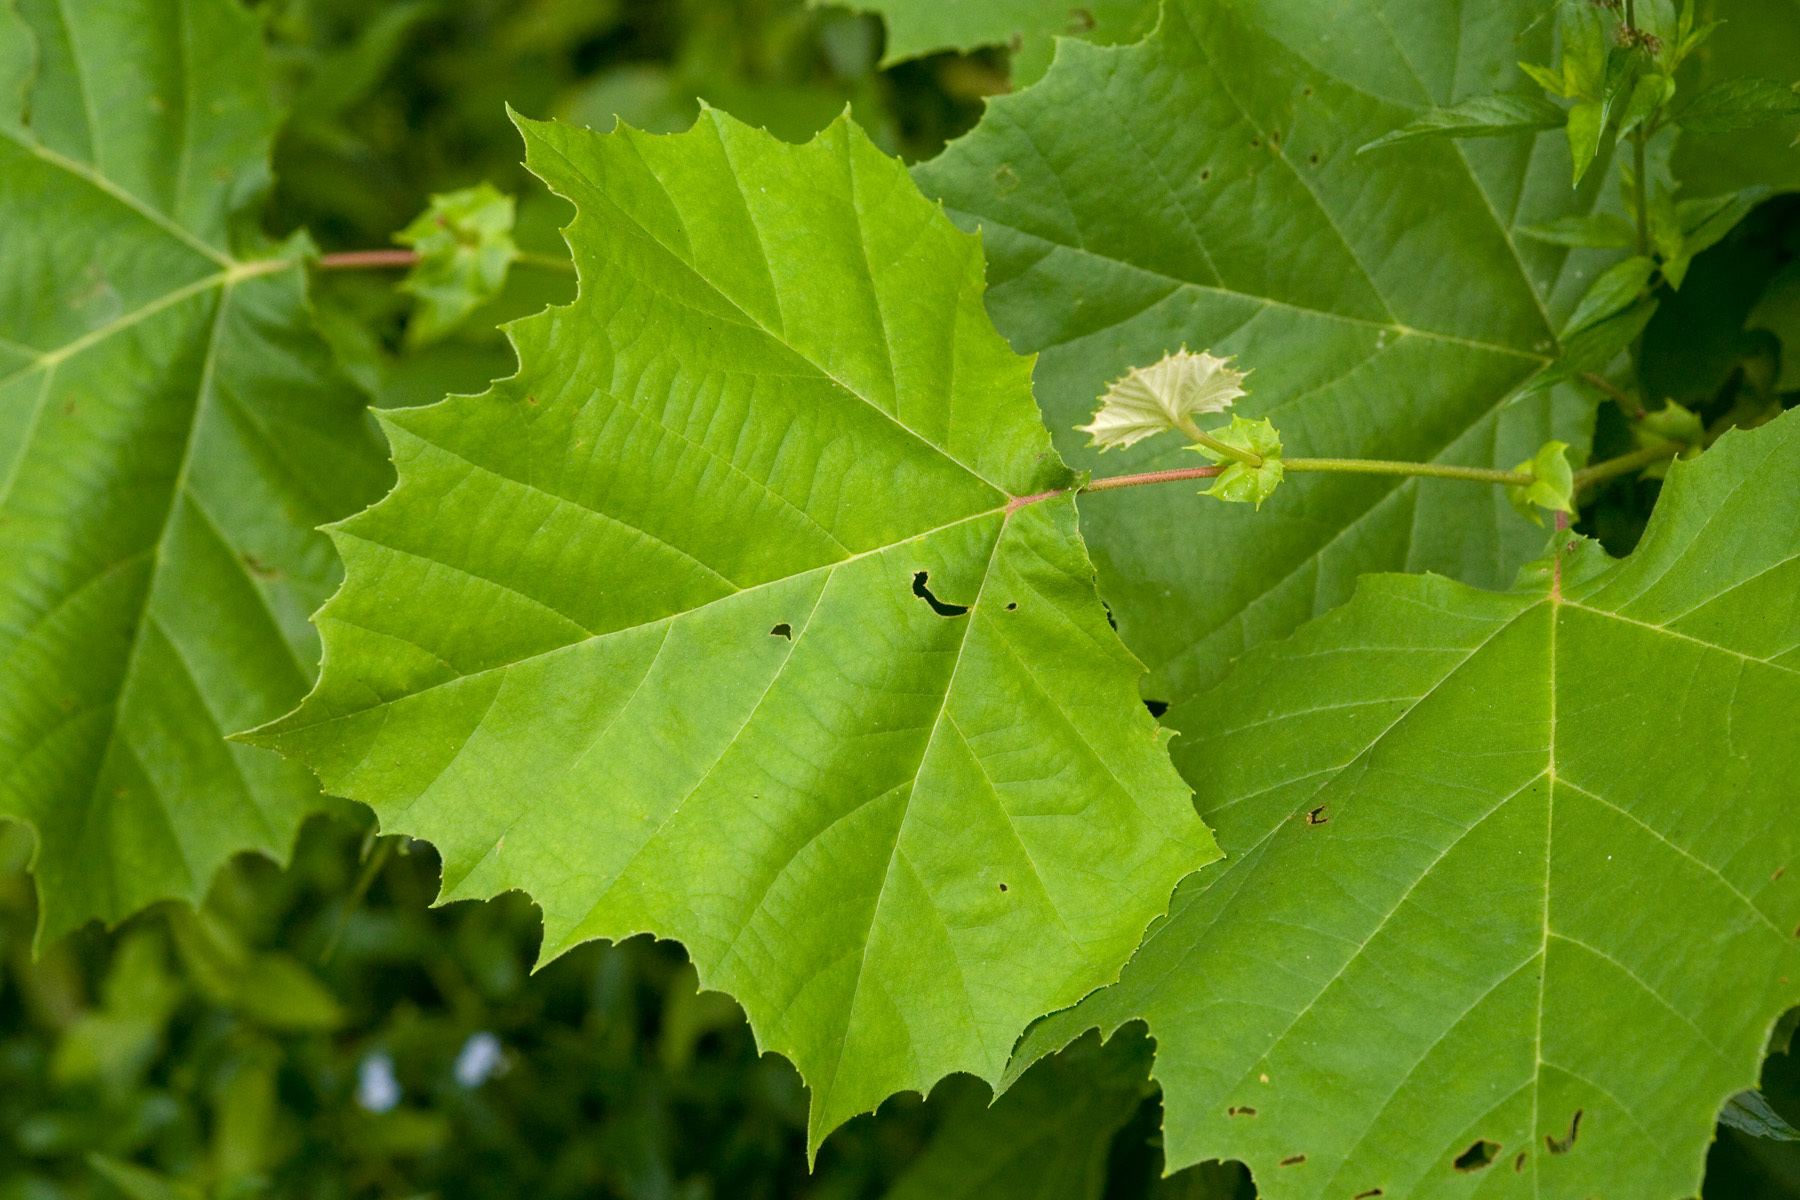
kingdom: Plantae
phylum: Tracheophyta
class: Magnoliopsida
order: Proteales
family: Platanaceae
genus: Platanus
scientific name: Platanus occidentalis
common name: American sycamore
